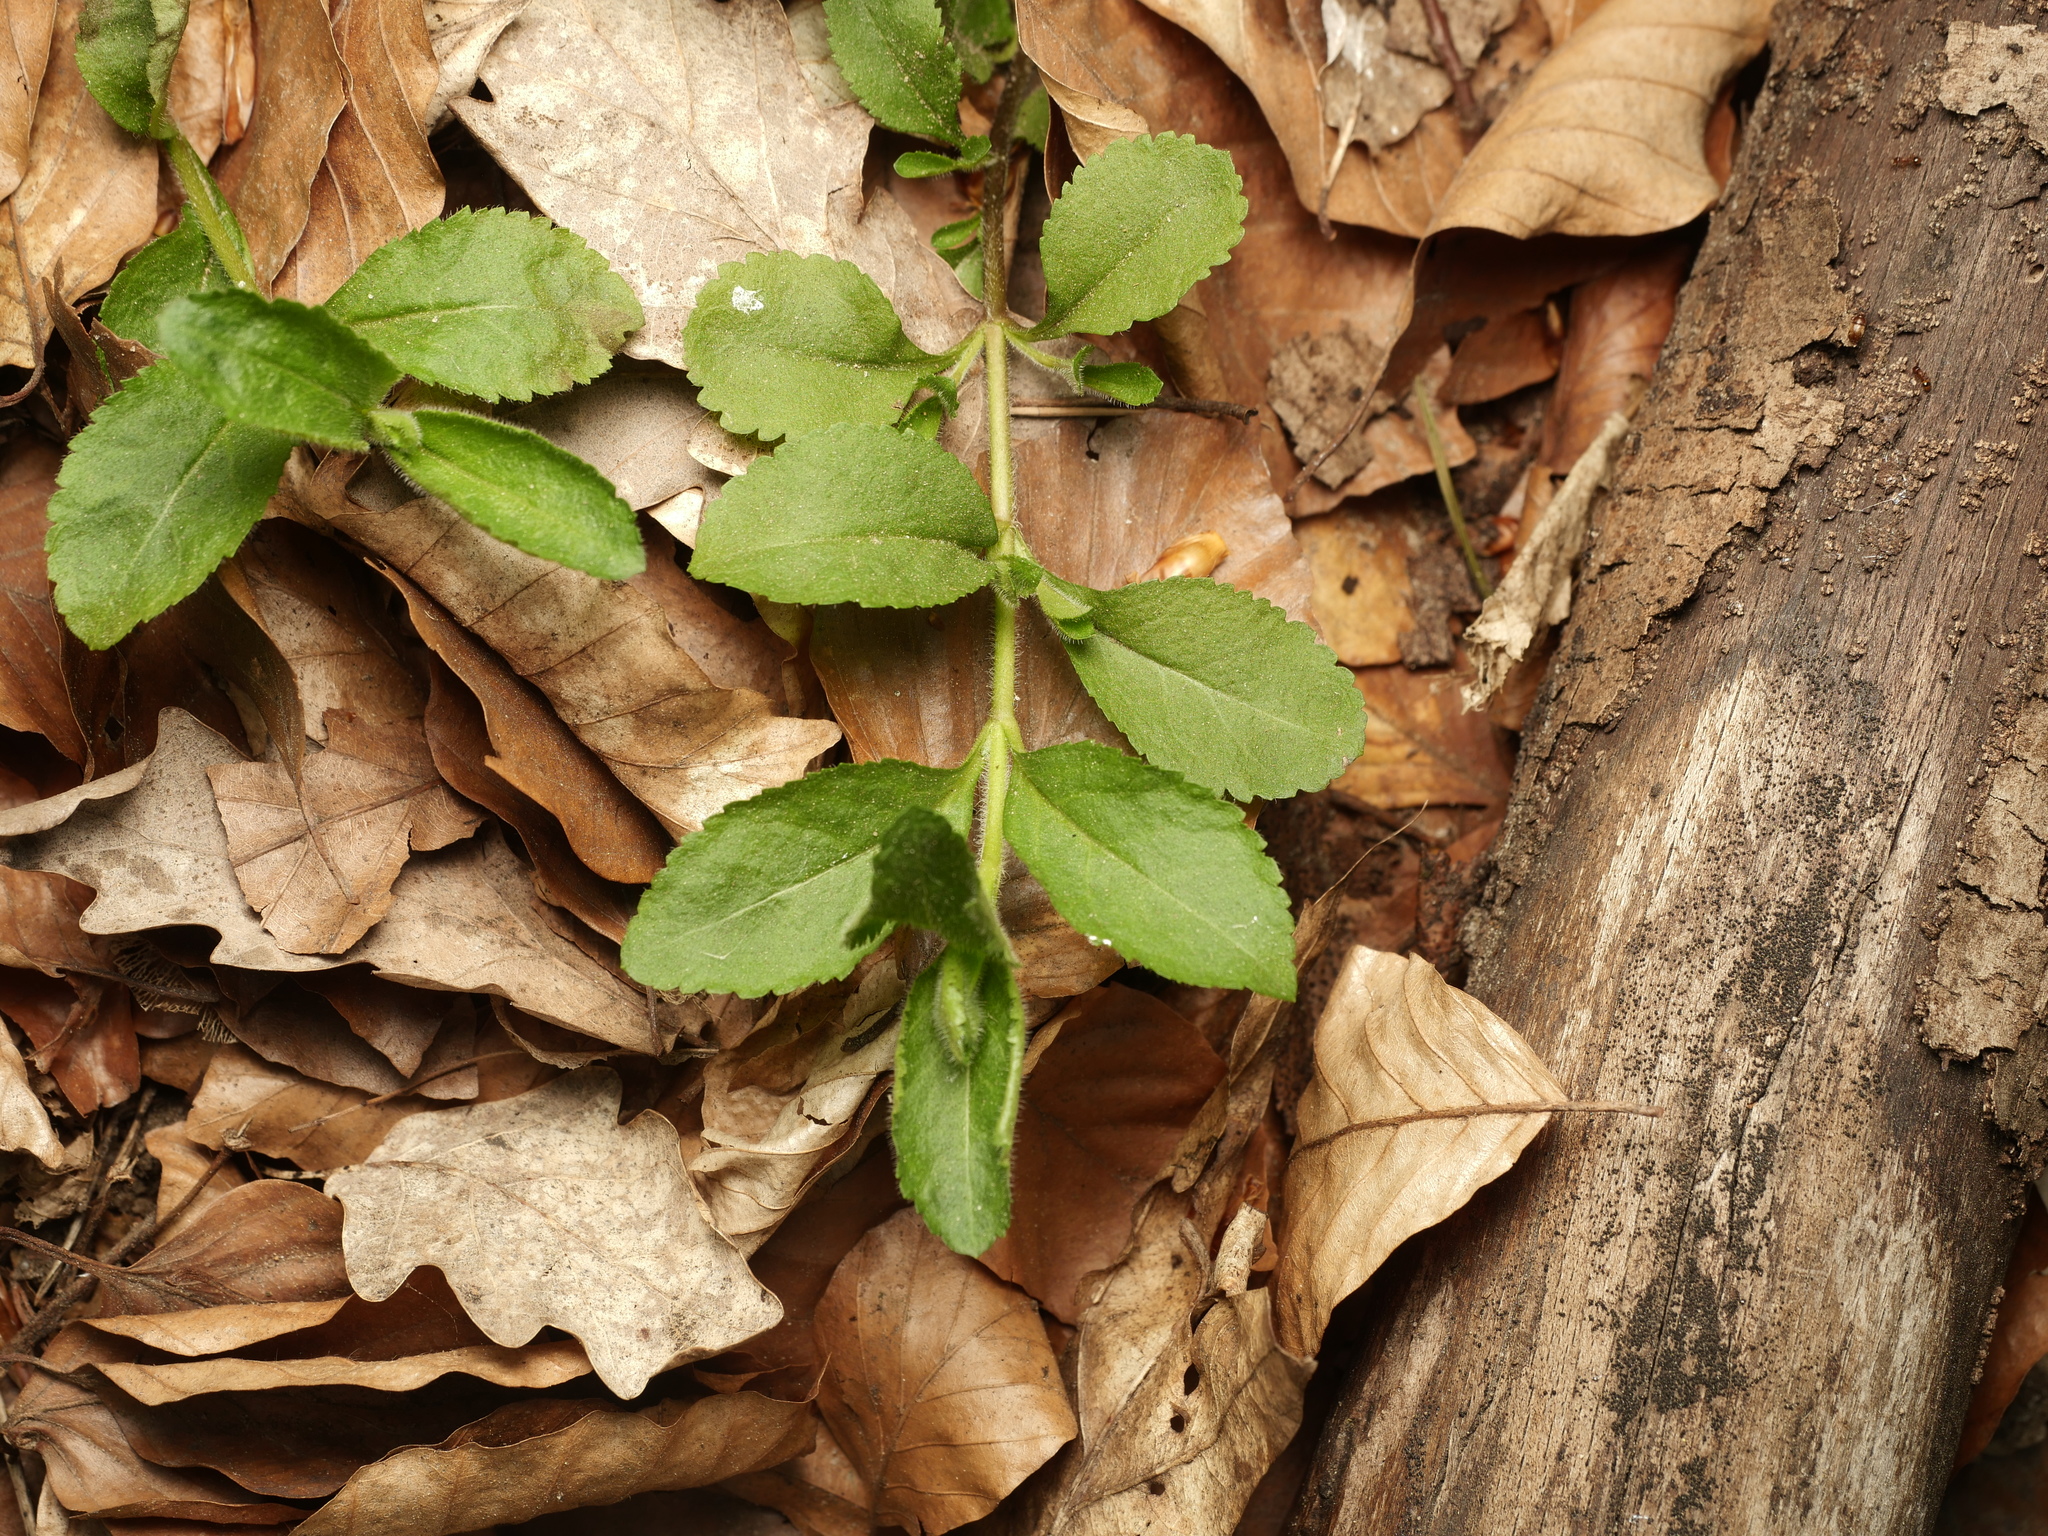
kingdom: Plantae
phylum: Tracheophyta
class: Magnoliopsida
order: Lamiales
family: Plantaginaceae
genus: Veronica
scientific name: Veronica officinalis
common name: Common speedwell
